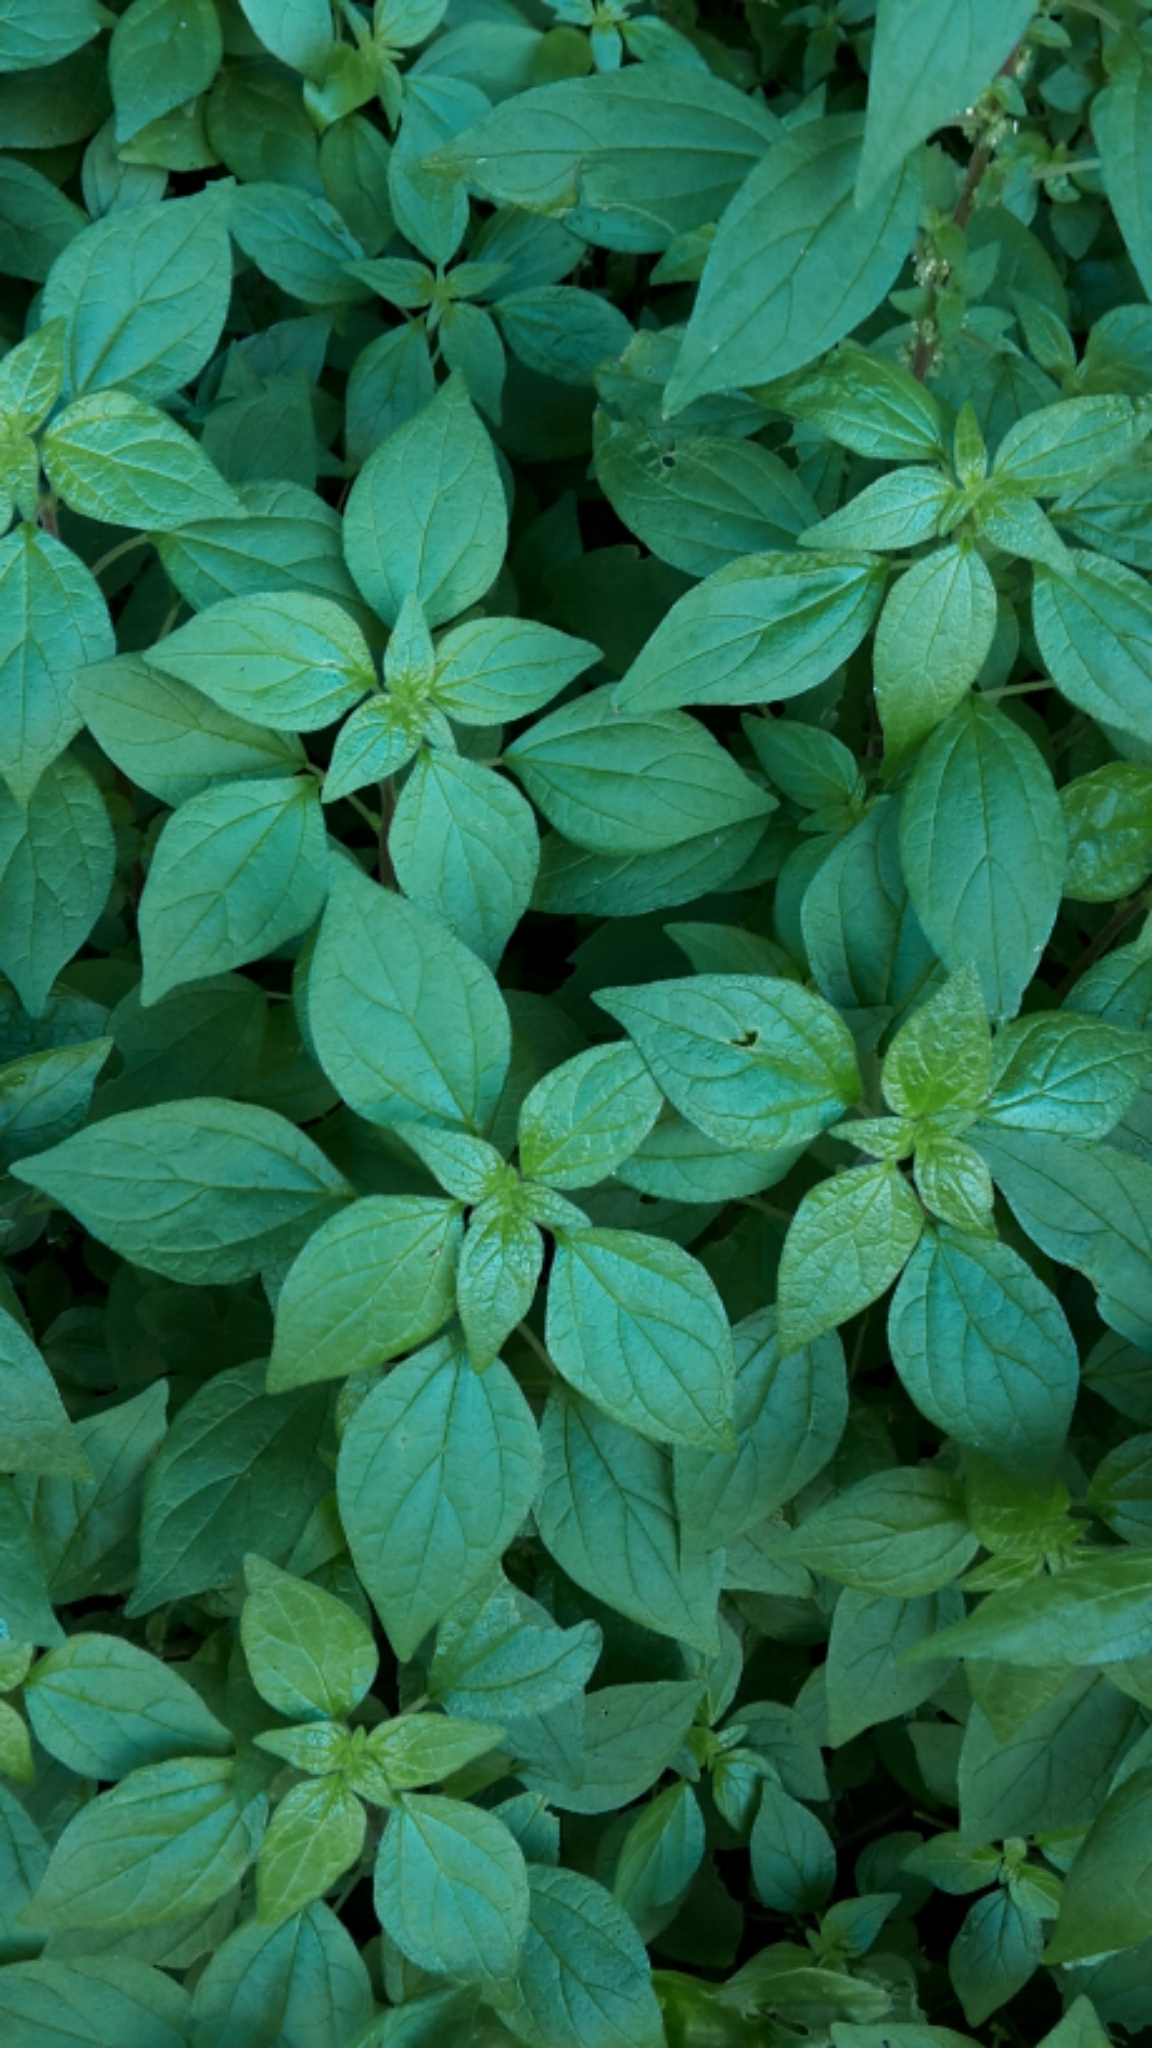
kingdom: Plantae
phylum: Tracheophyta
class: Magnoliopsida
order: Rosales
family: Urticaceae
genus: Parietaria
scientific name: Parietaria judaica
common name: Pellitory-of-the-wall
